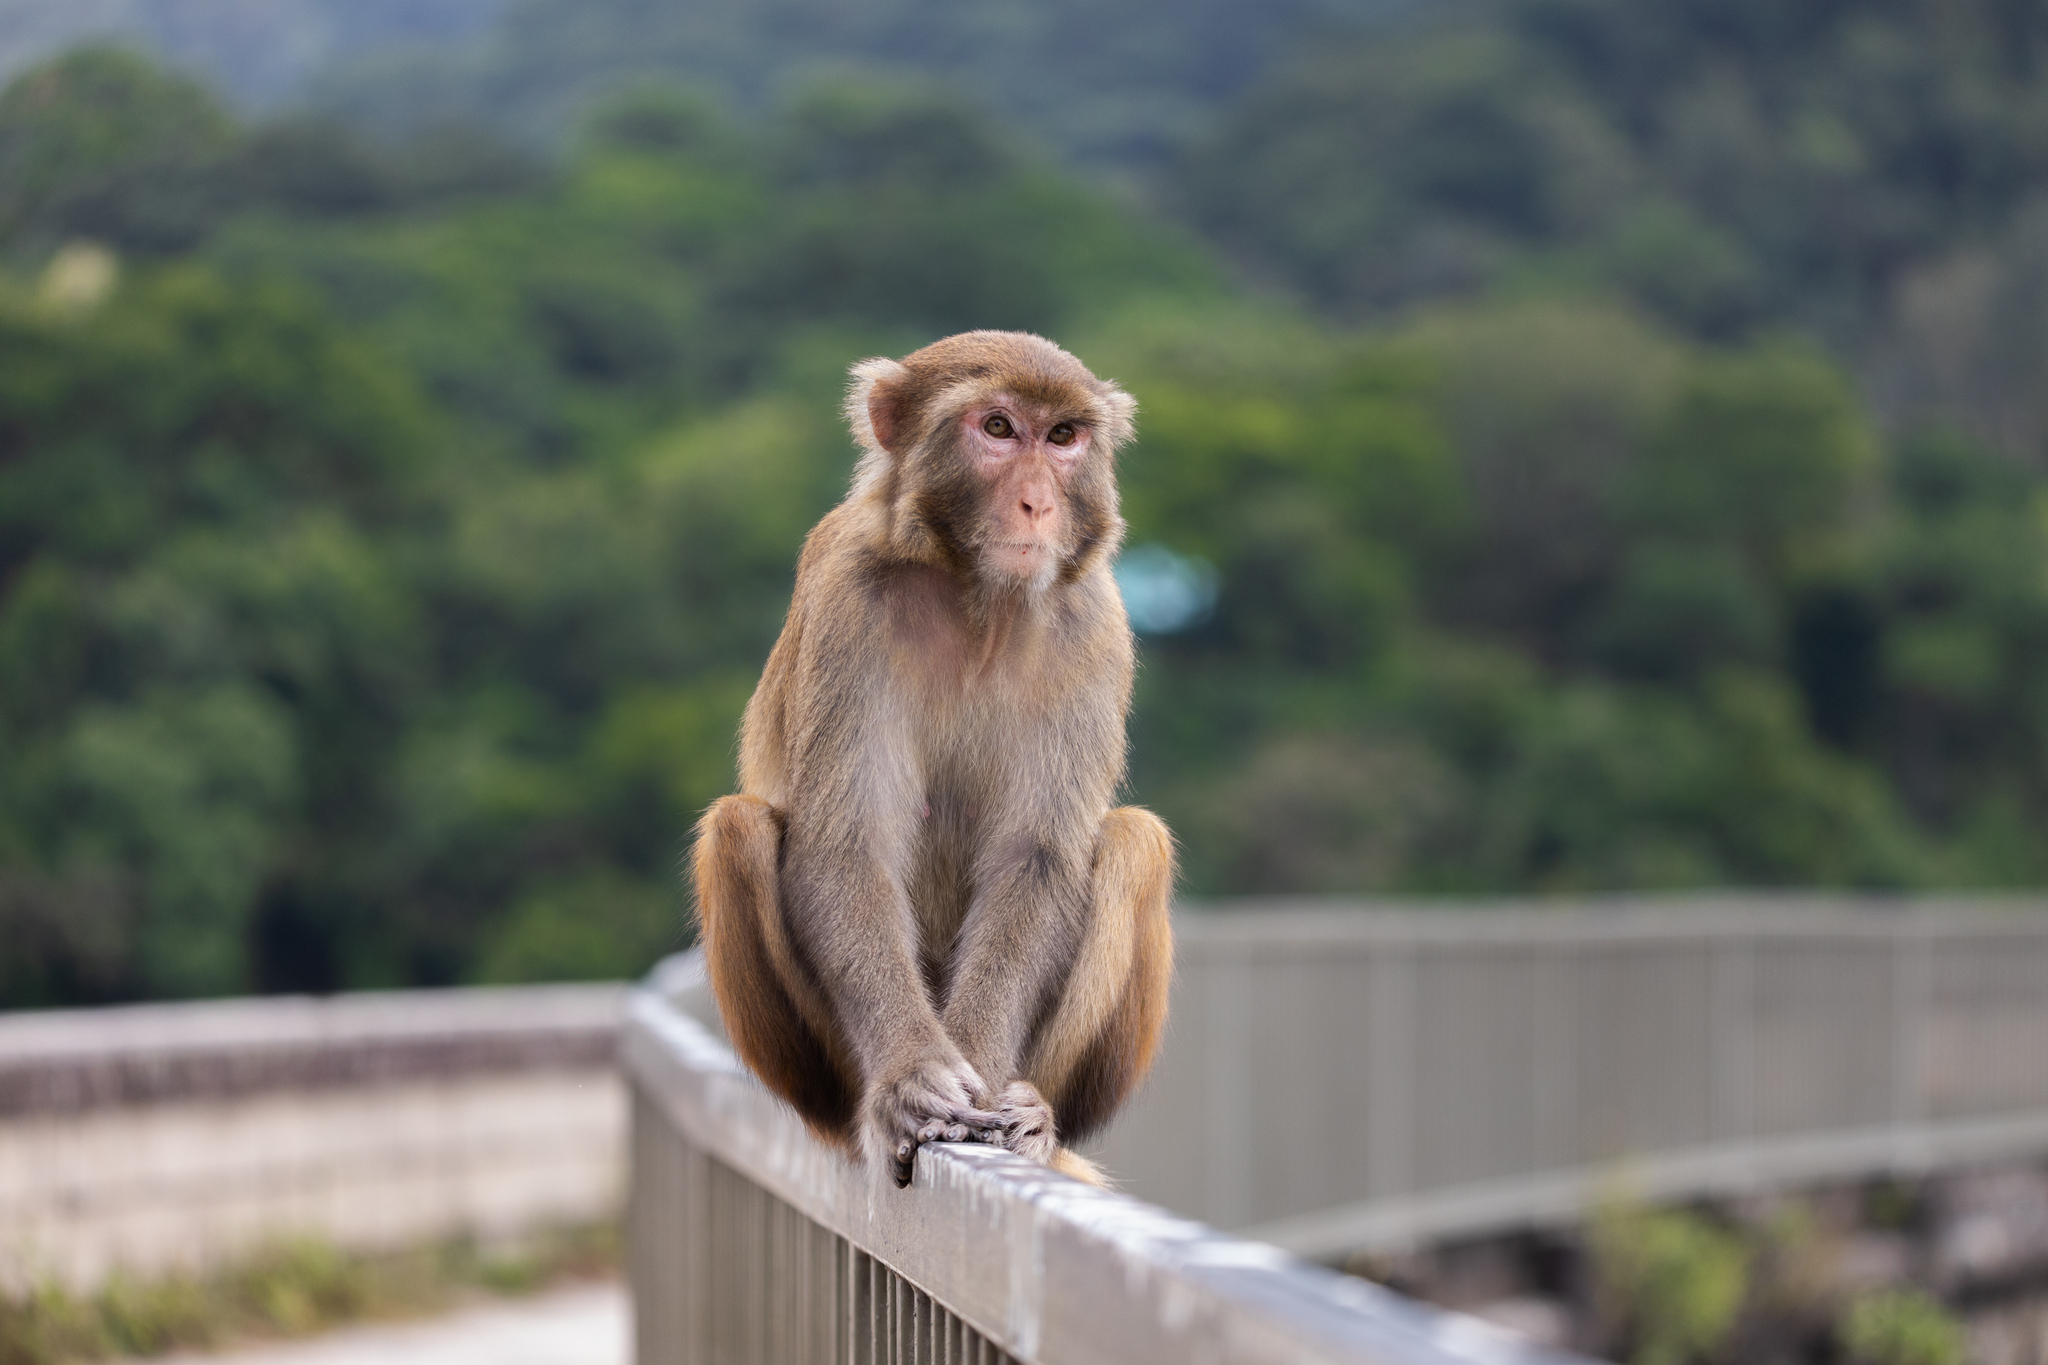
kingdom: Animalia
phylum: Chordata
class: Mammalia
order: Primates
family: Cercopithecidae
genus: Macaca
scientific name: Macaca mulatta
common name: Rhesus monkey
